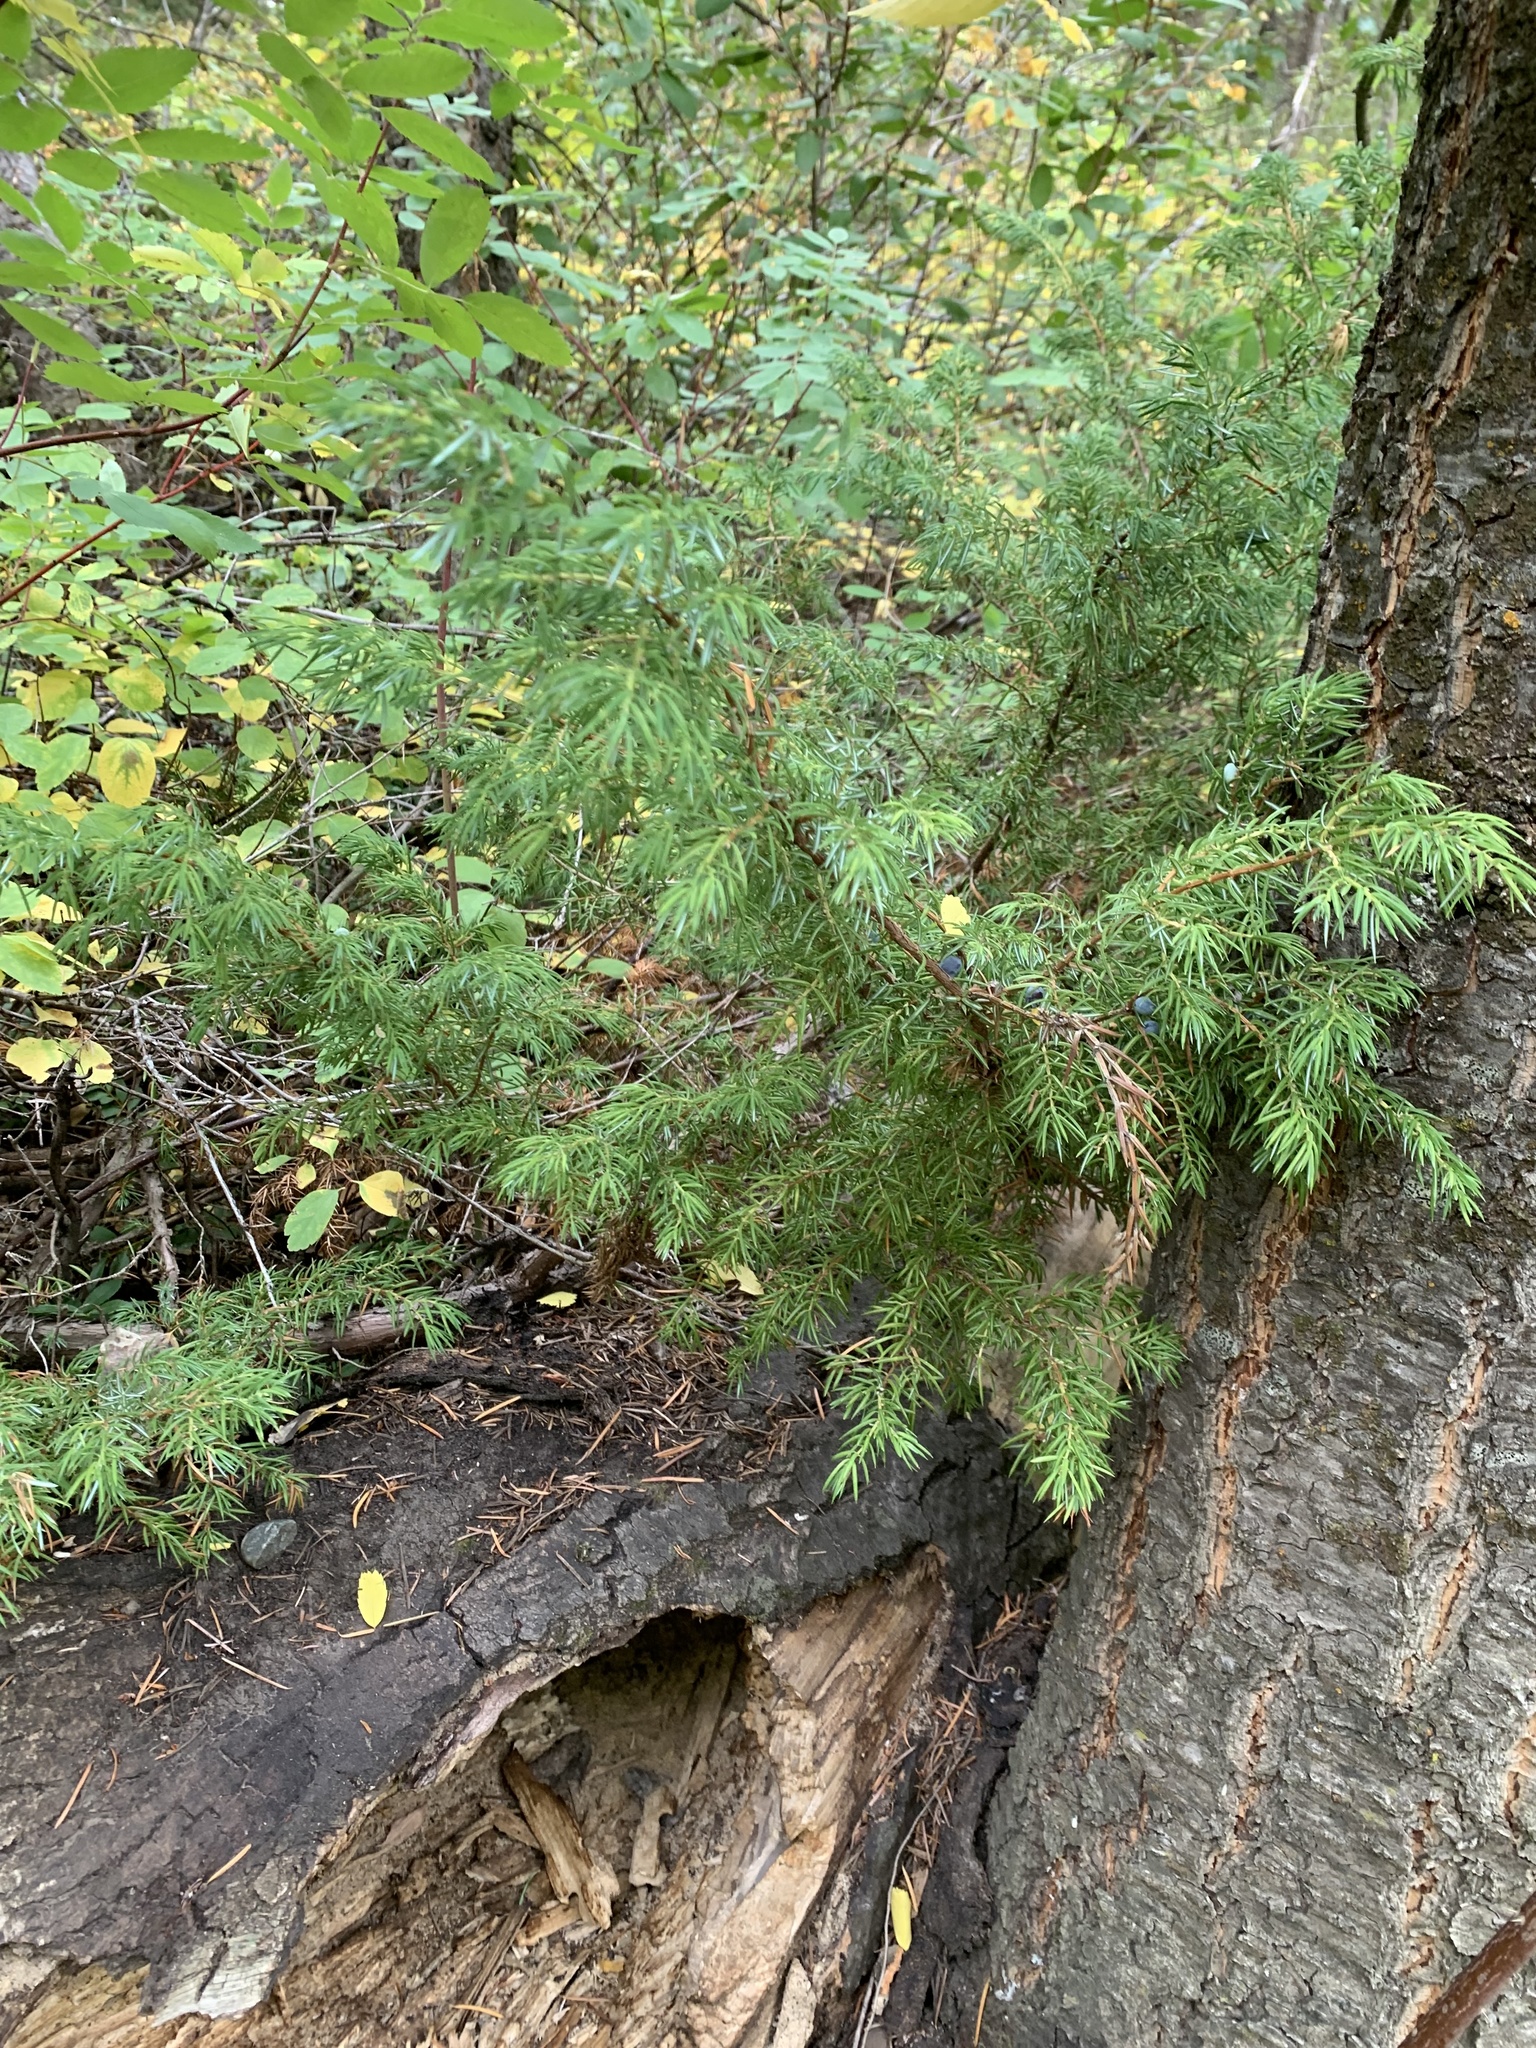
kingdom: Plantae
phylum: Tracheophyta
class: Pinopsida
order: Pinales
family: Cupressaceae
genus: Juniperus
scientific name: Juniperus communis
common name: Common juniper
